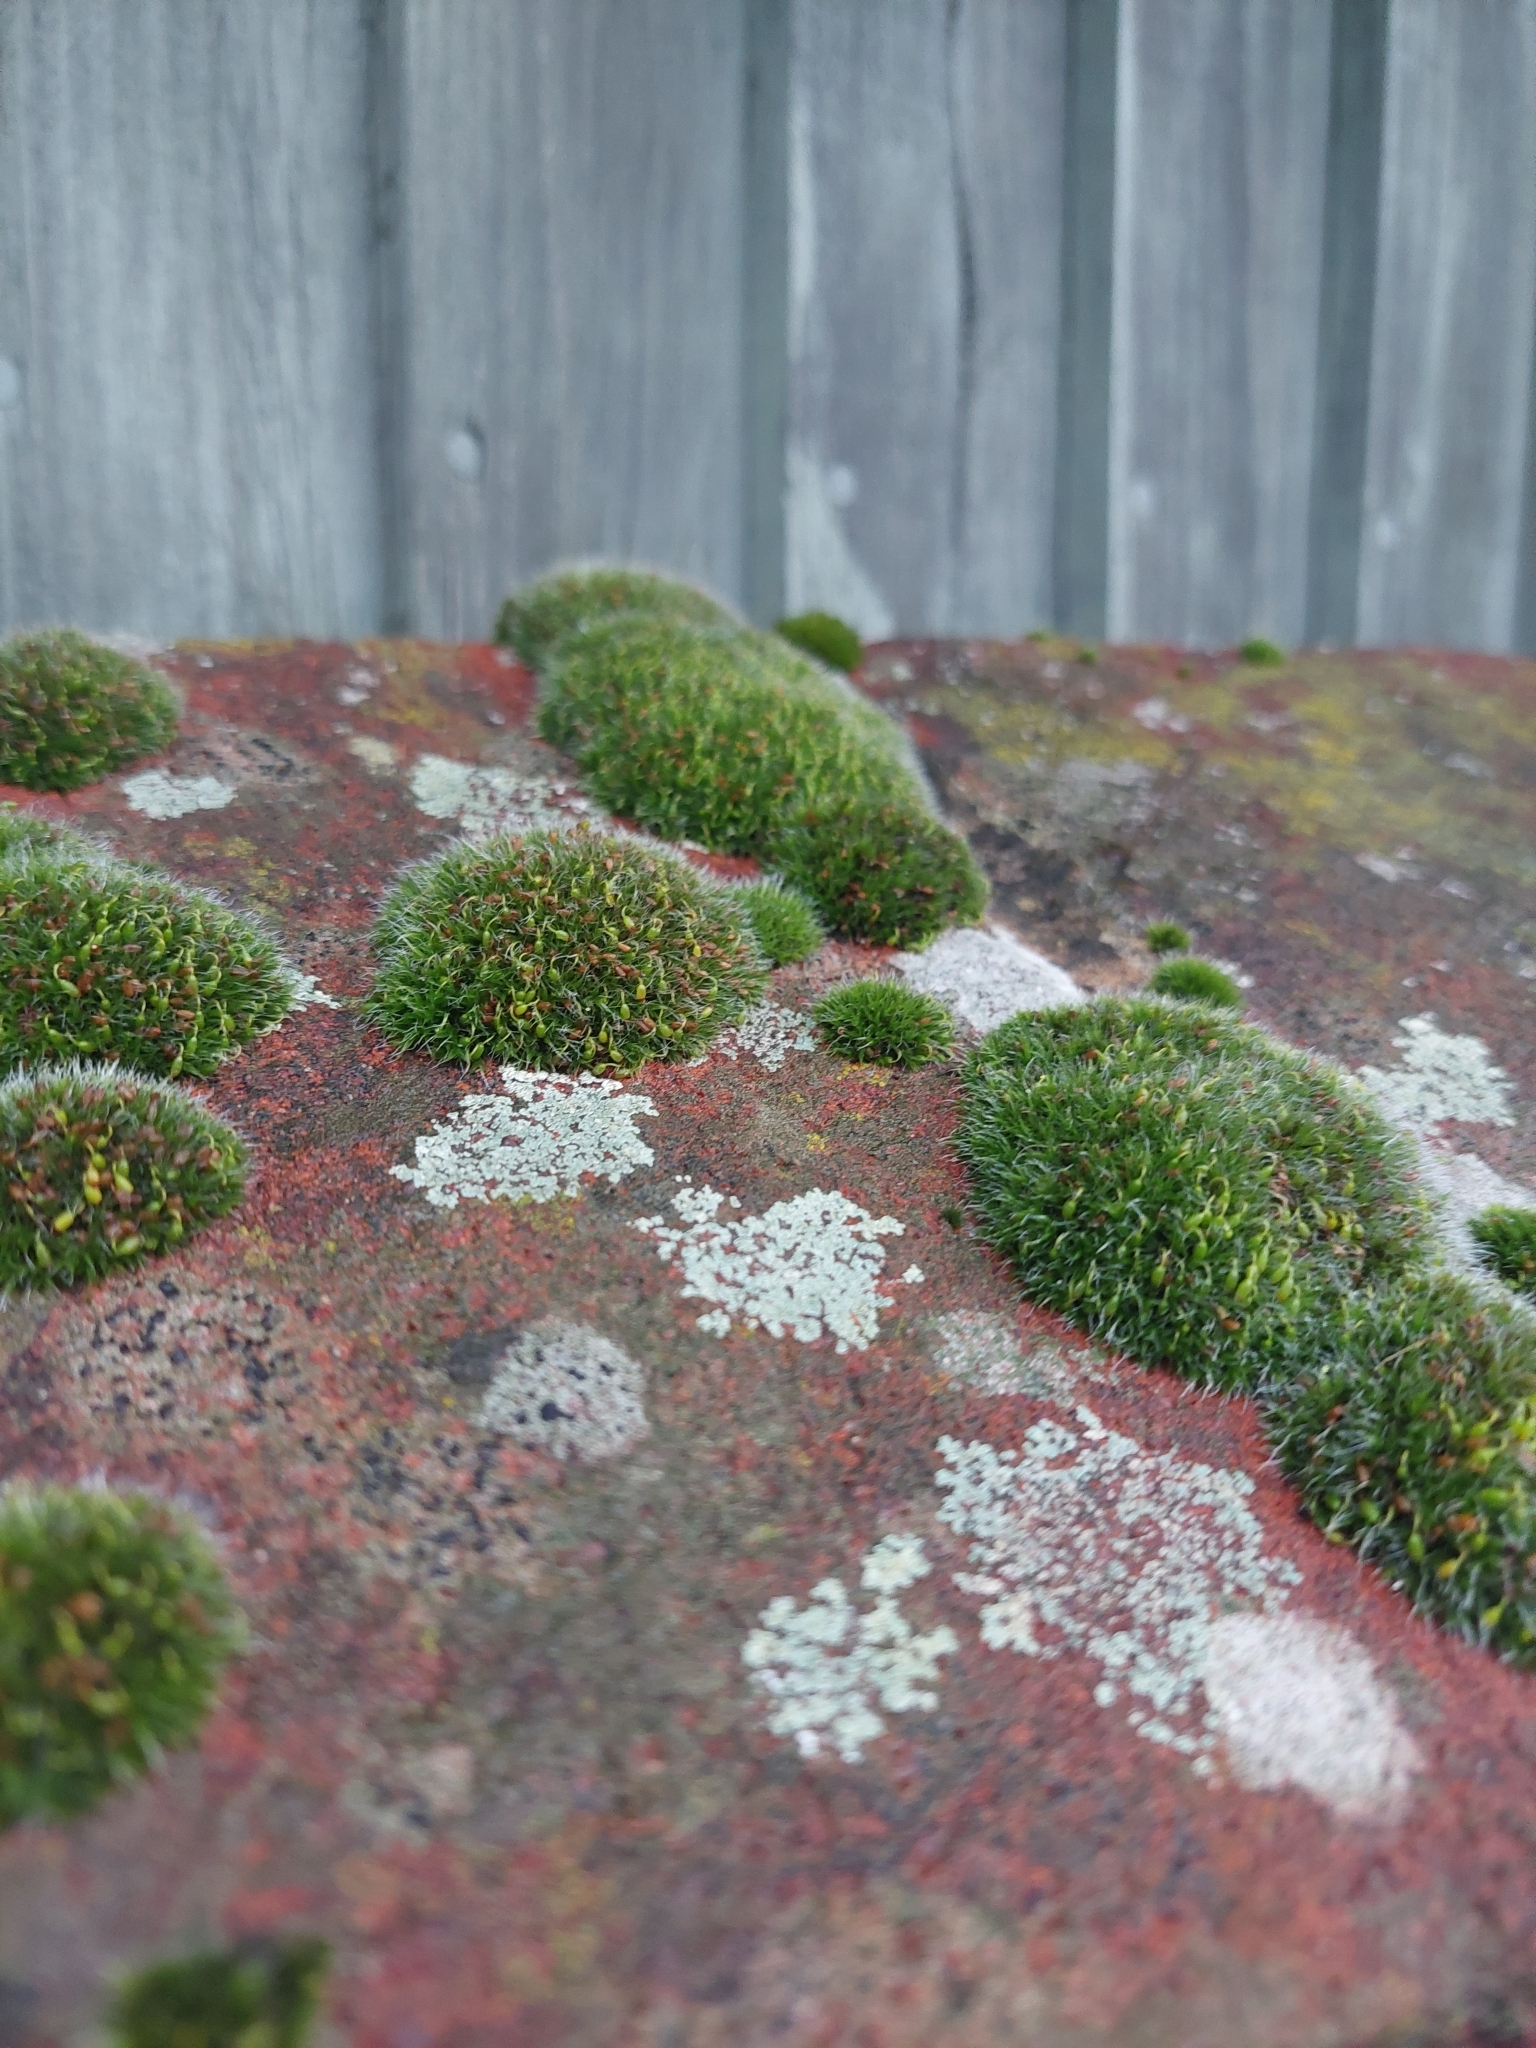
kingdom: Plantae
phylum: Bryophyta
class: Bryopsida
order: Grimmiales
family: Grimmiaceae
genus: Grimmia
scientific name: Grimmia pulvinata
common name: Grey-cushioned grimmia
